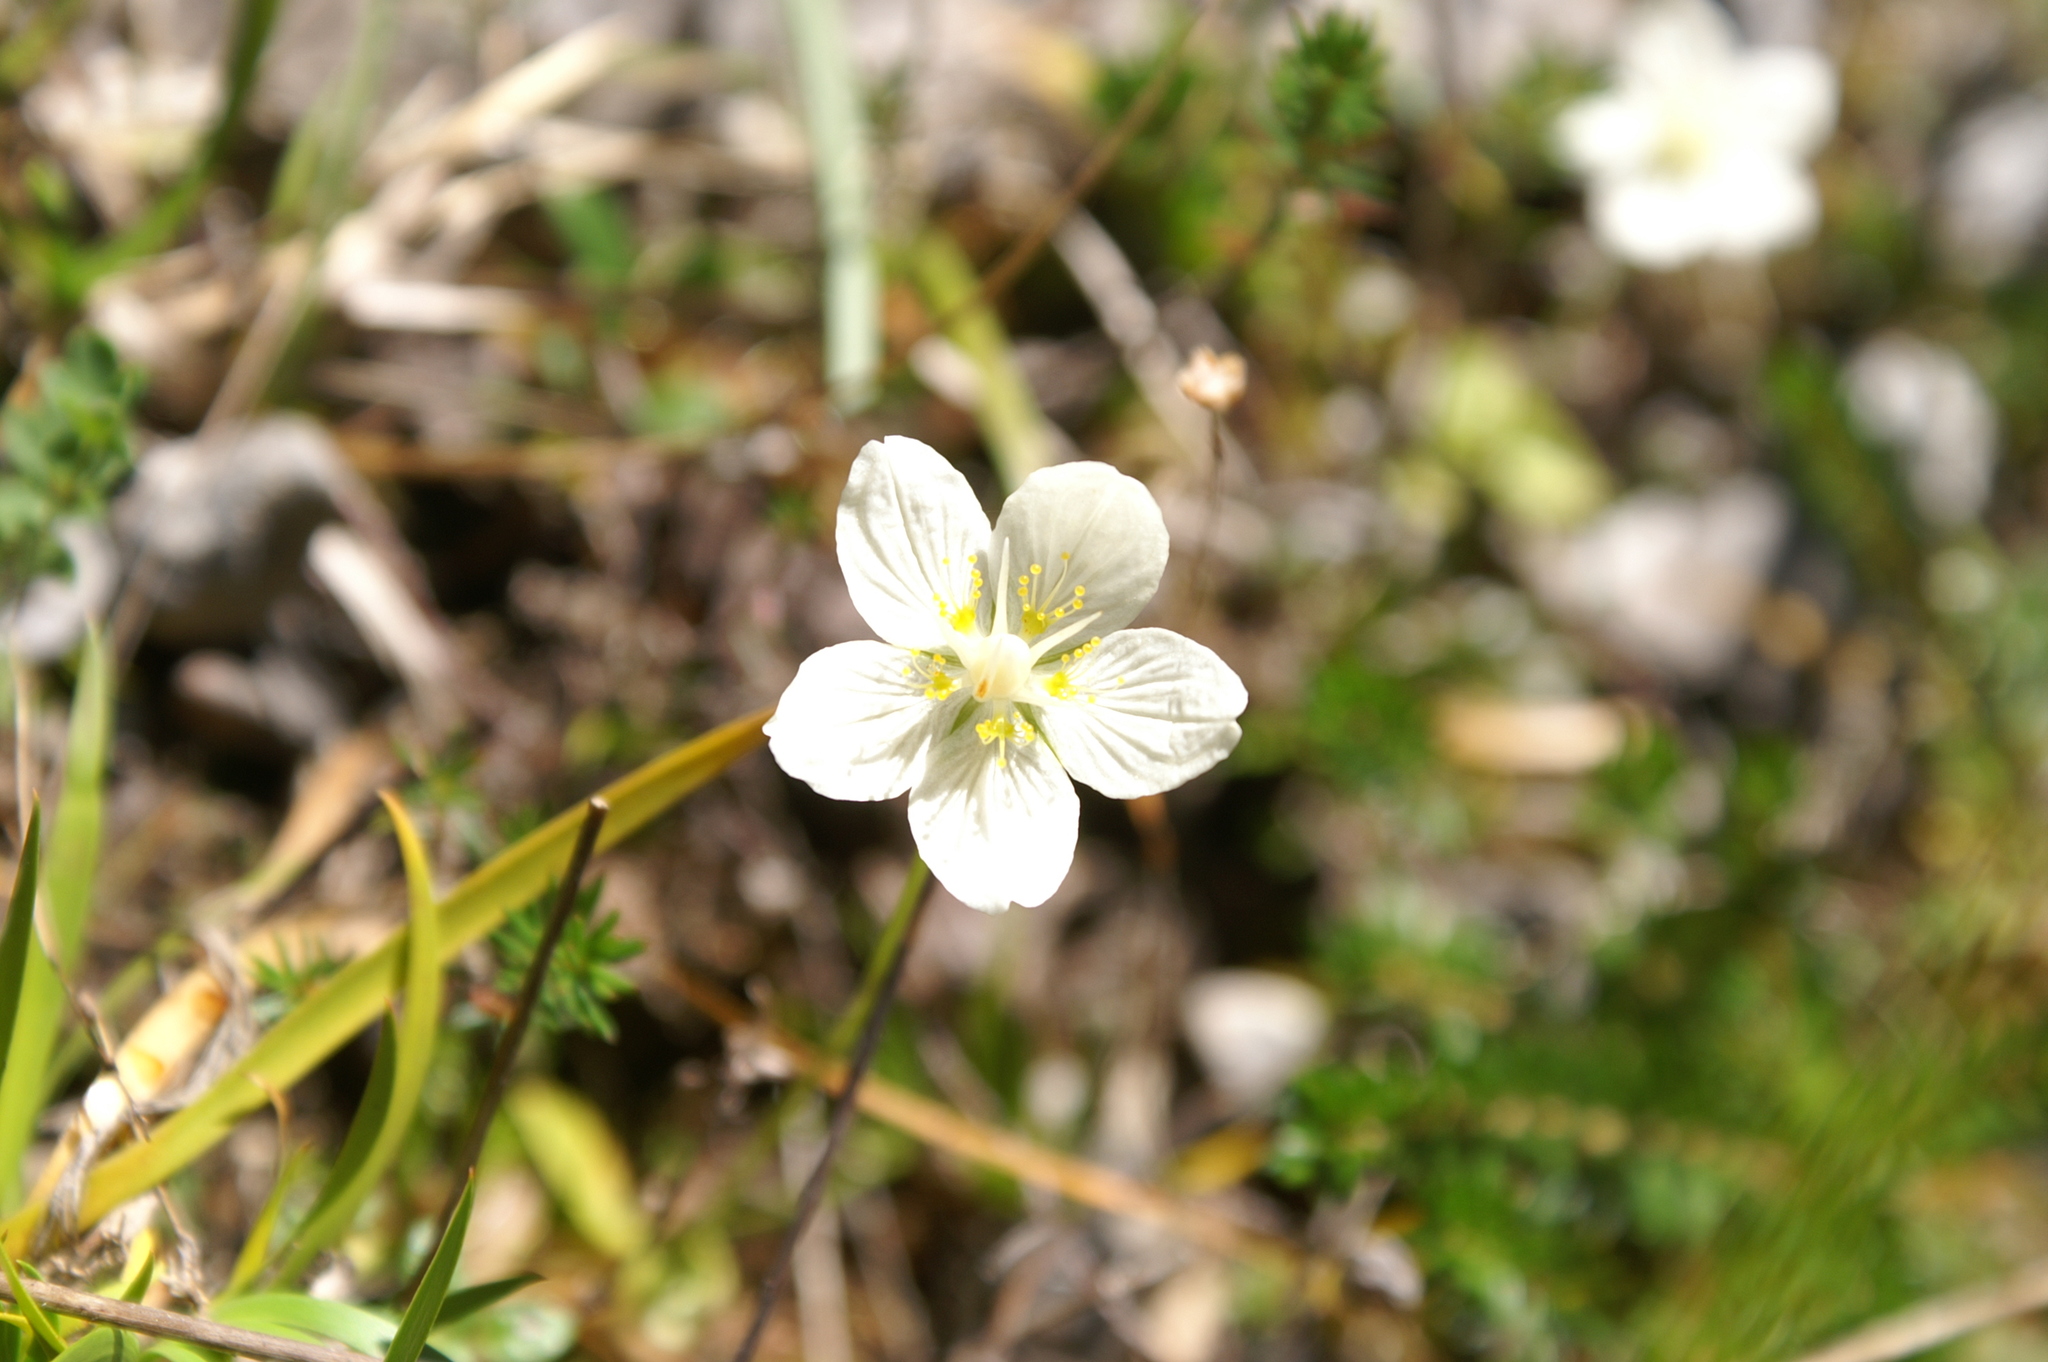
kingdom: Plantae
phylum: Tracheophyta
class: Magnoliopsida
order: Celastrales
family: Parnassiaceae
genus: Parnassia
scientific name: Parnassia palustris
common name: Grass-of-parnassus
